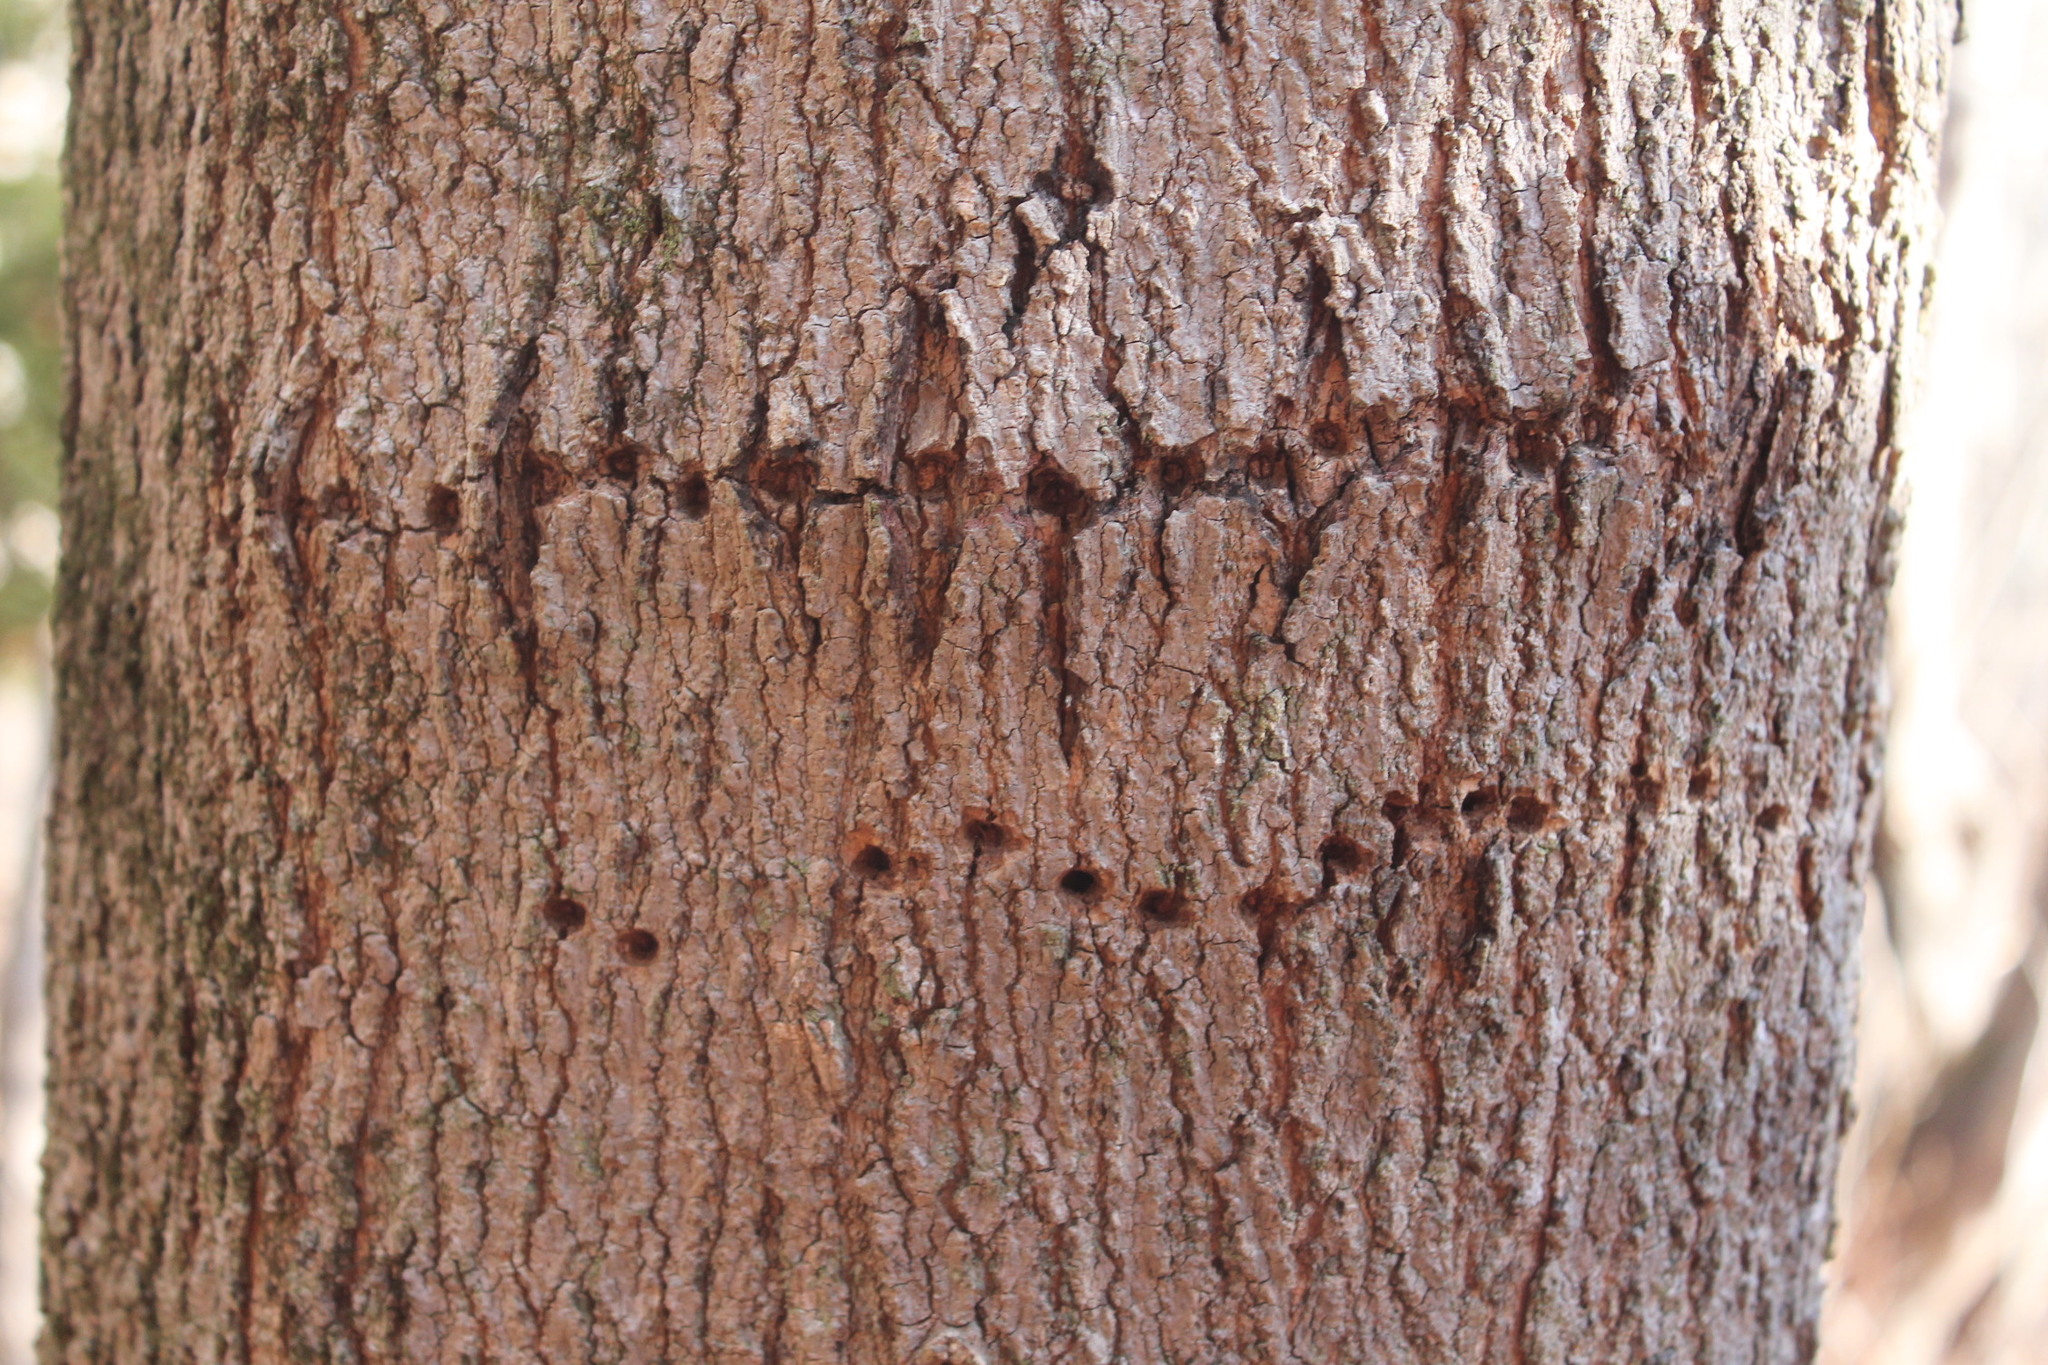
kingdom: Animalia
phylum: Chordata
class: Aves
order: Piciformes
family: Picidae
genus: Sphyrapicus
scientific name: Sphyrapicus varius
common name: Yellow-bellied sapsucker
